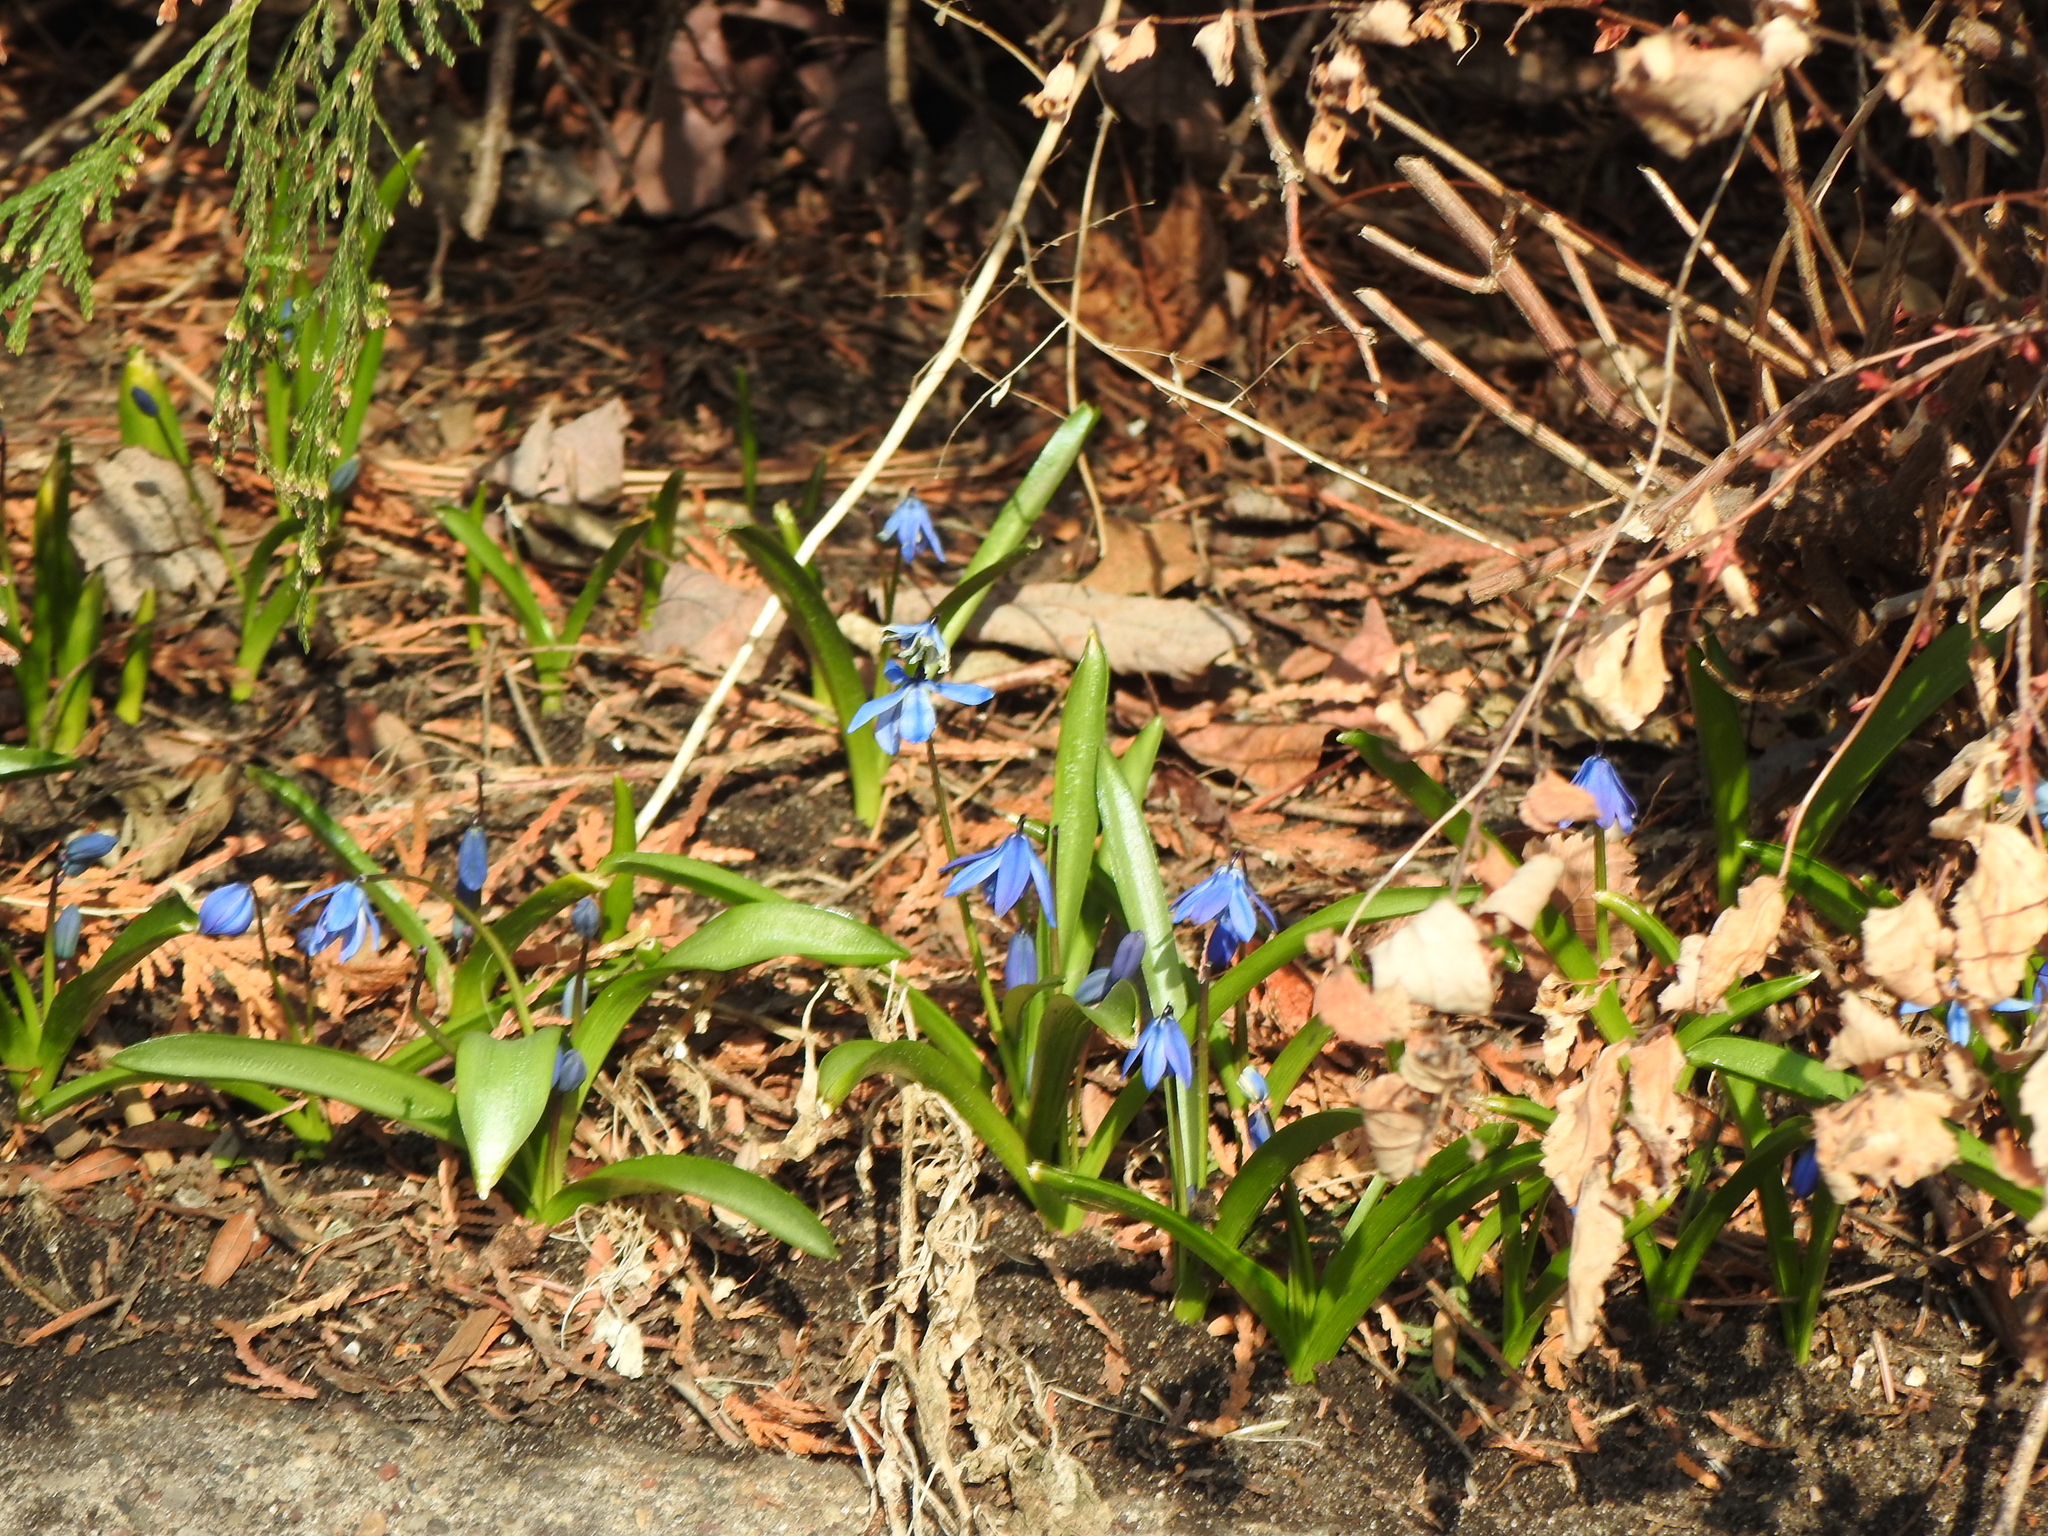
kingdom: Plantae
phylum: Tracheophyta
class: Liliopsida
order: Asparagales
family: Asparagaceae
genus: Scilla
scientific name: Scilla siberica
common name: Siberian squill
